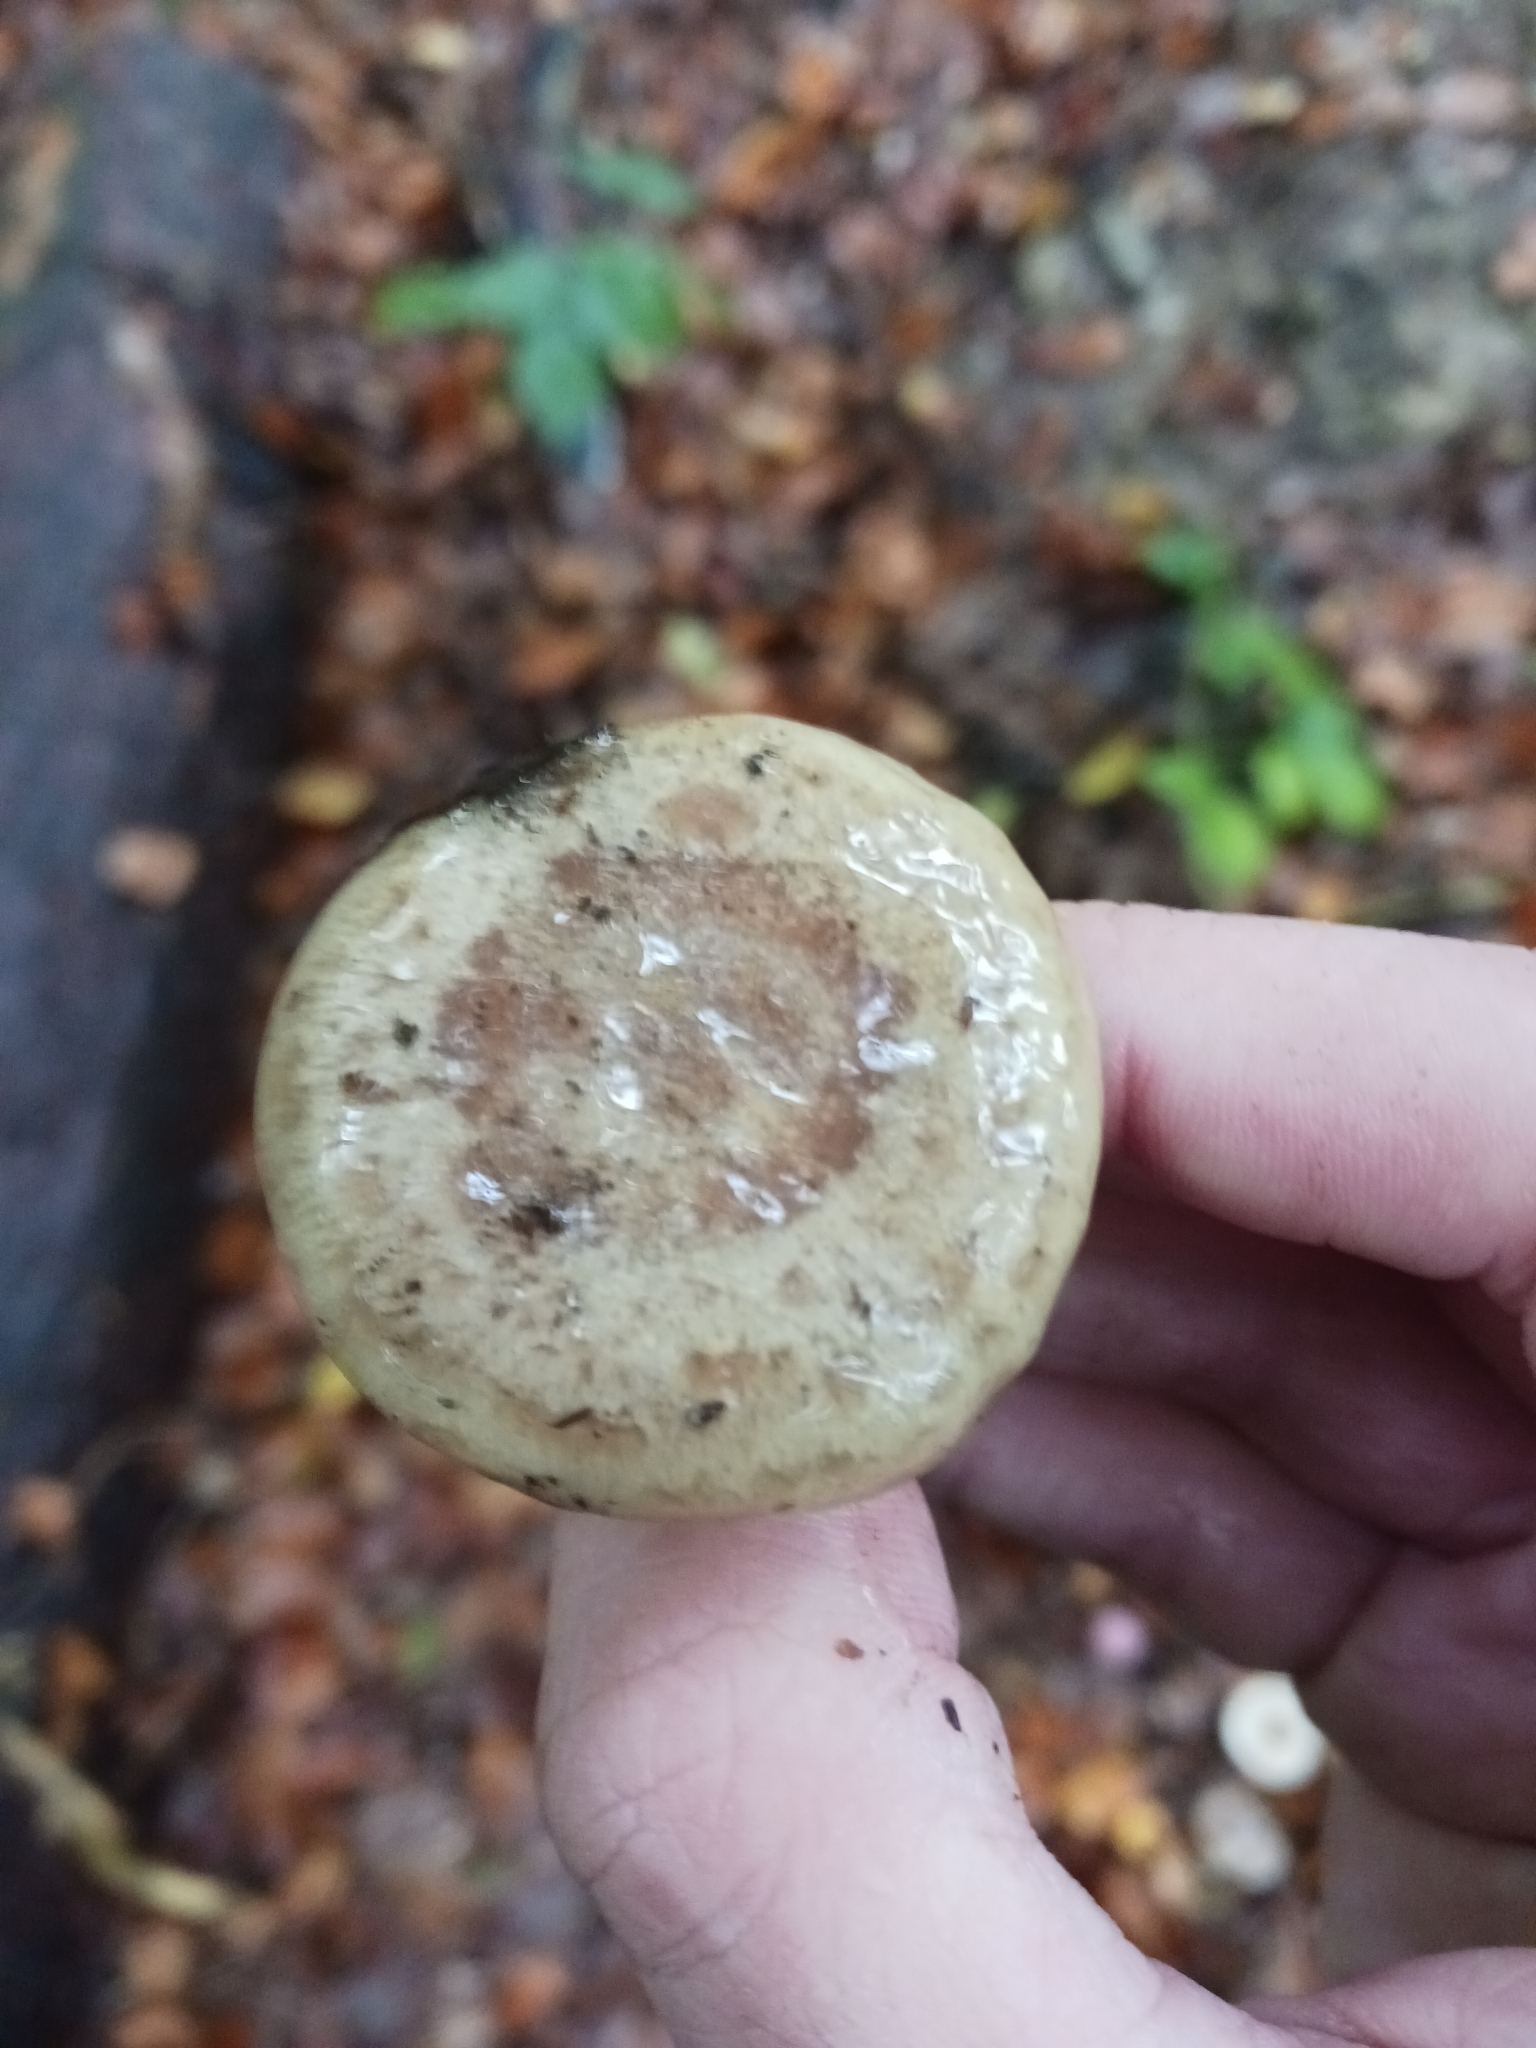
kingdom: Fungi
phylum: Basidiomycota
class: Agaricomycetes
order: Russulales
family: Russulaceae
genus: Lactarius
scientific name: Lactarius blennius
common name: Beech milkcap
